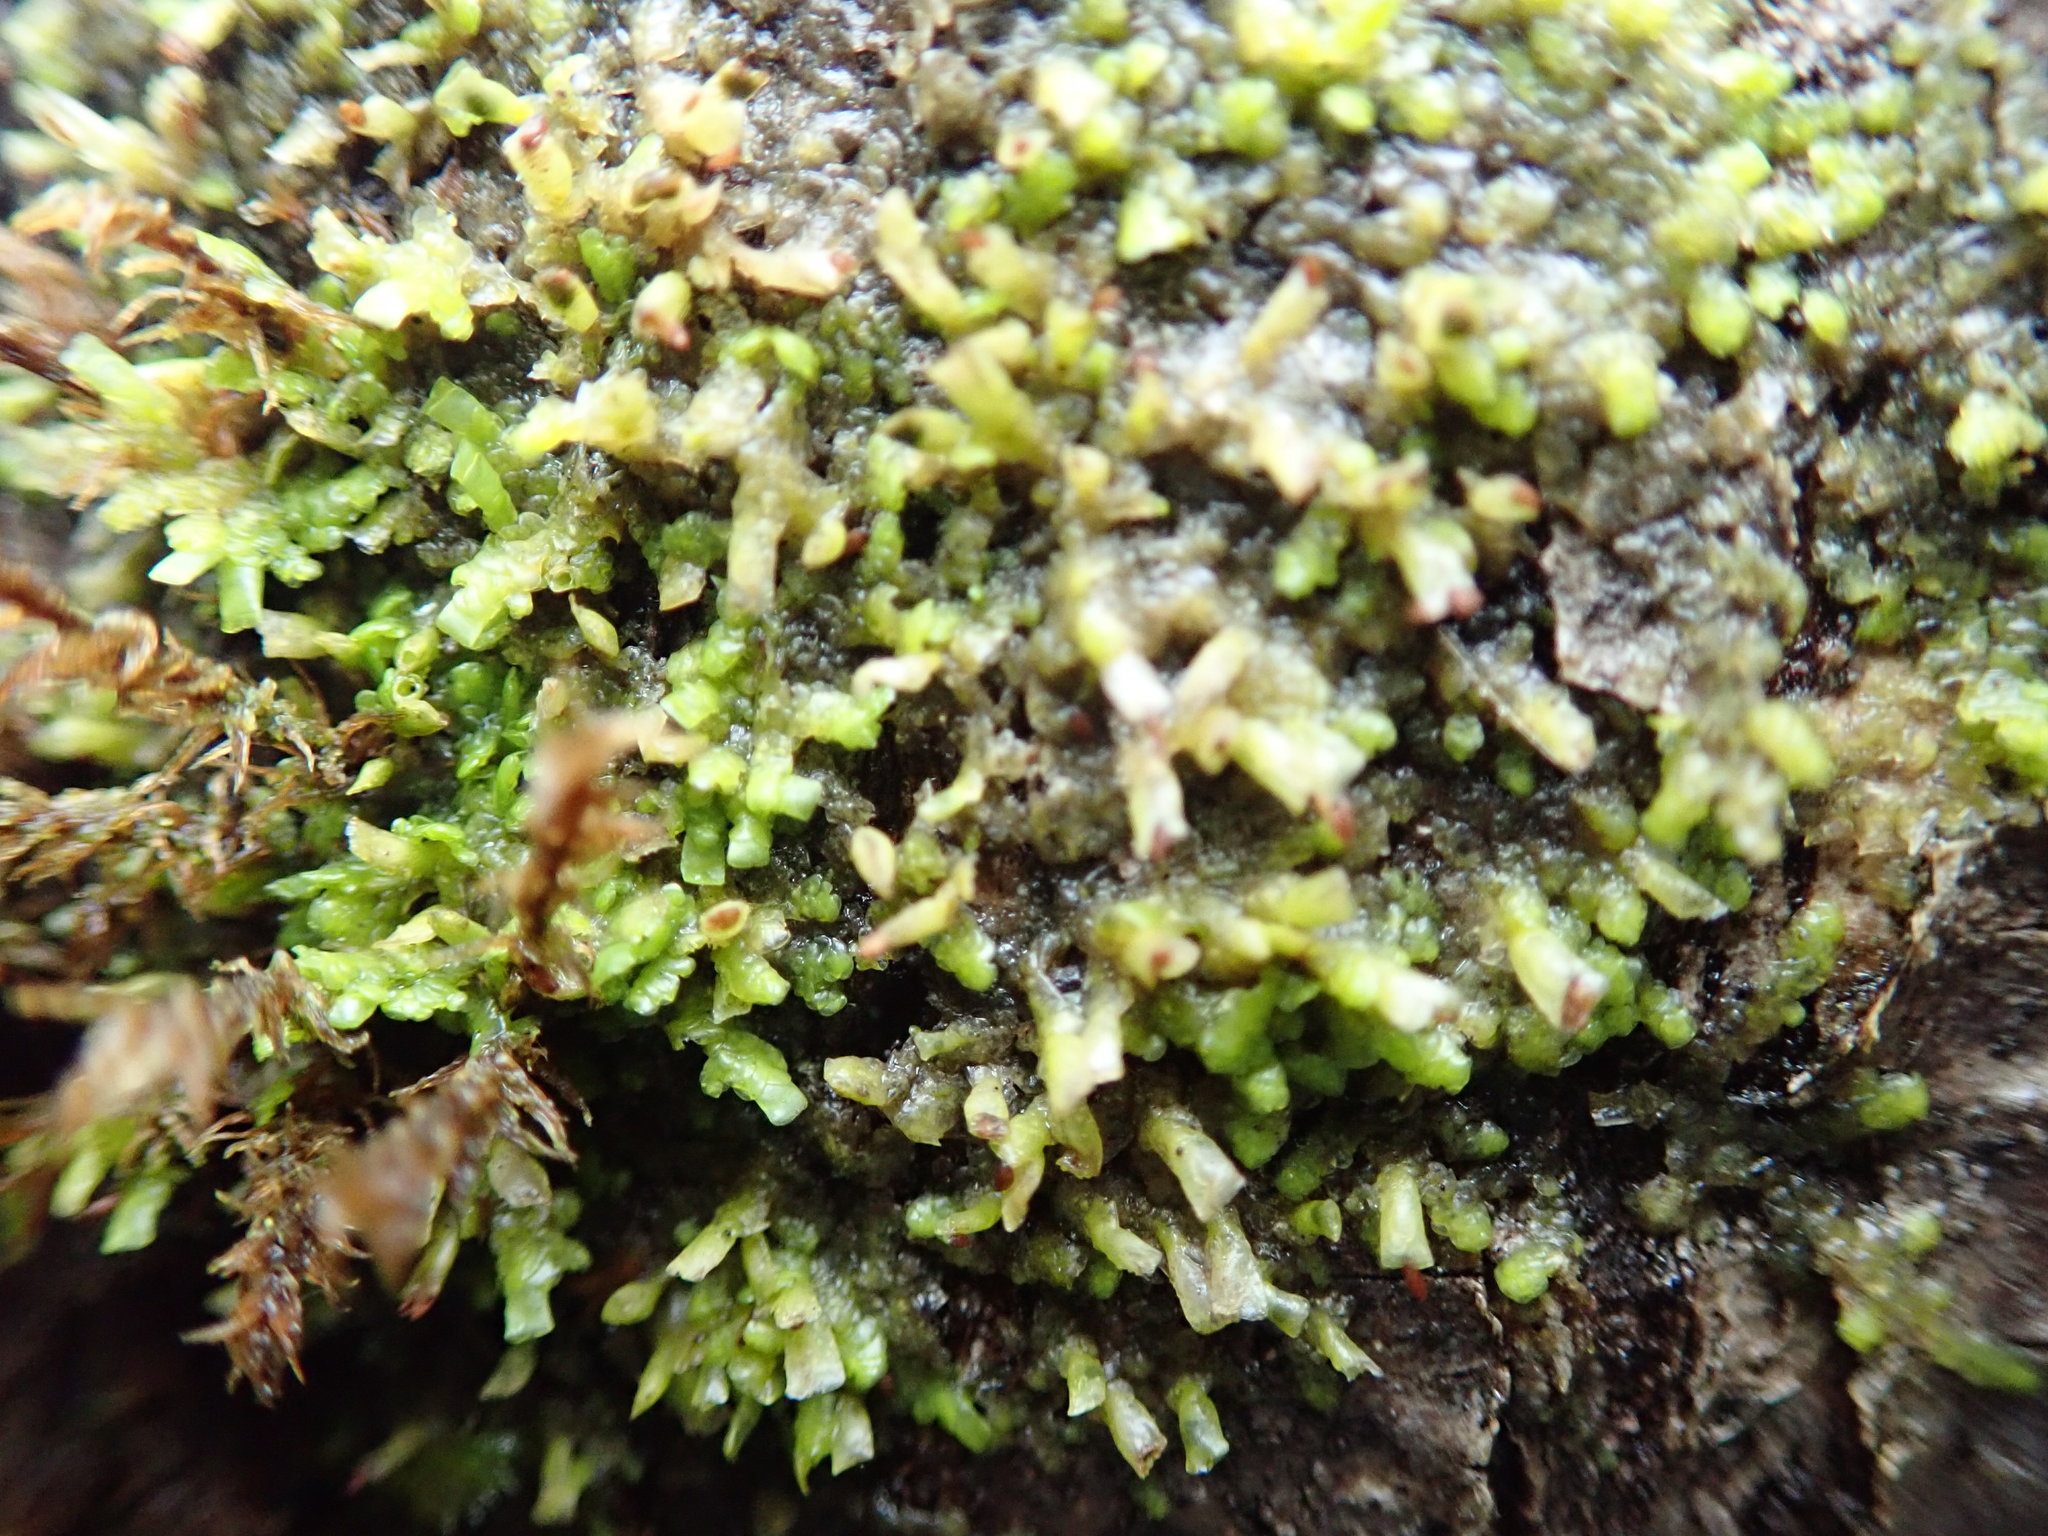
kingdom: Plantae
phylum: Marchantiophyta
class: Jungermanniopsida
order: Porellales
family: Radulaceae
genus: Radula
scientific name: Radula complanata
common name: Flat-leaved scalewort
